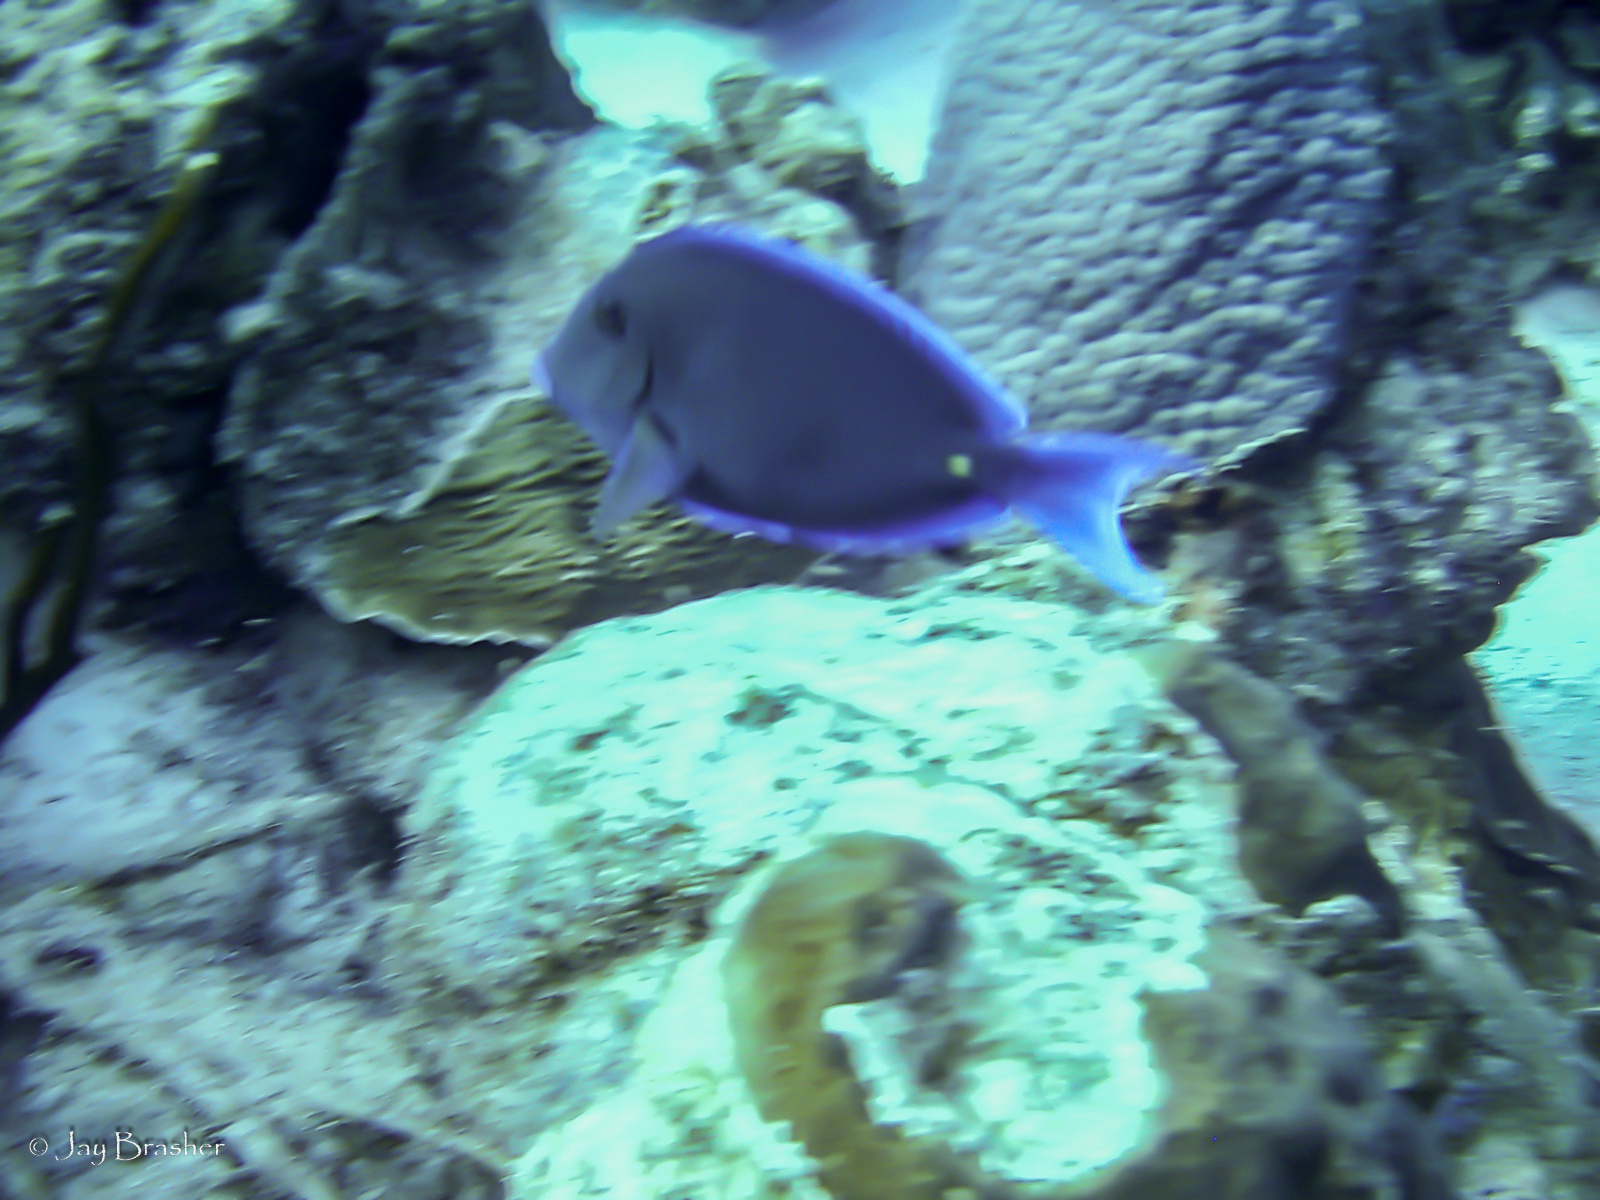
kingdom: Animalia
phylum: Chordata
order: Perciformes
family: Acanthuridae
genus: Acanthurus
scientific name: Acanthurus coeruleus
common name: Blue tang
